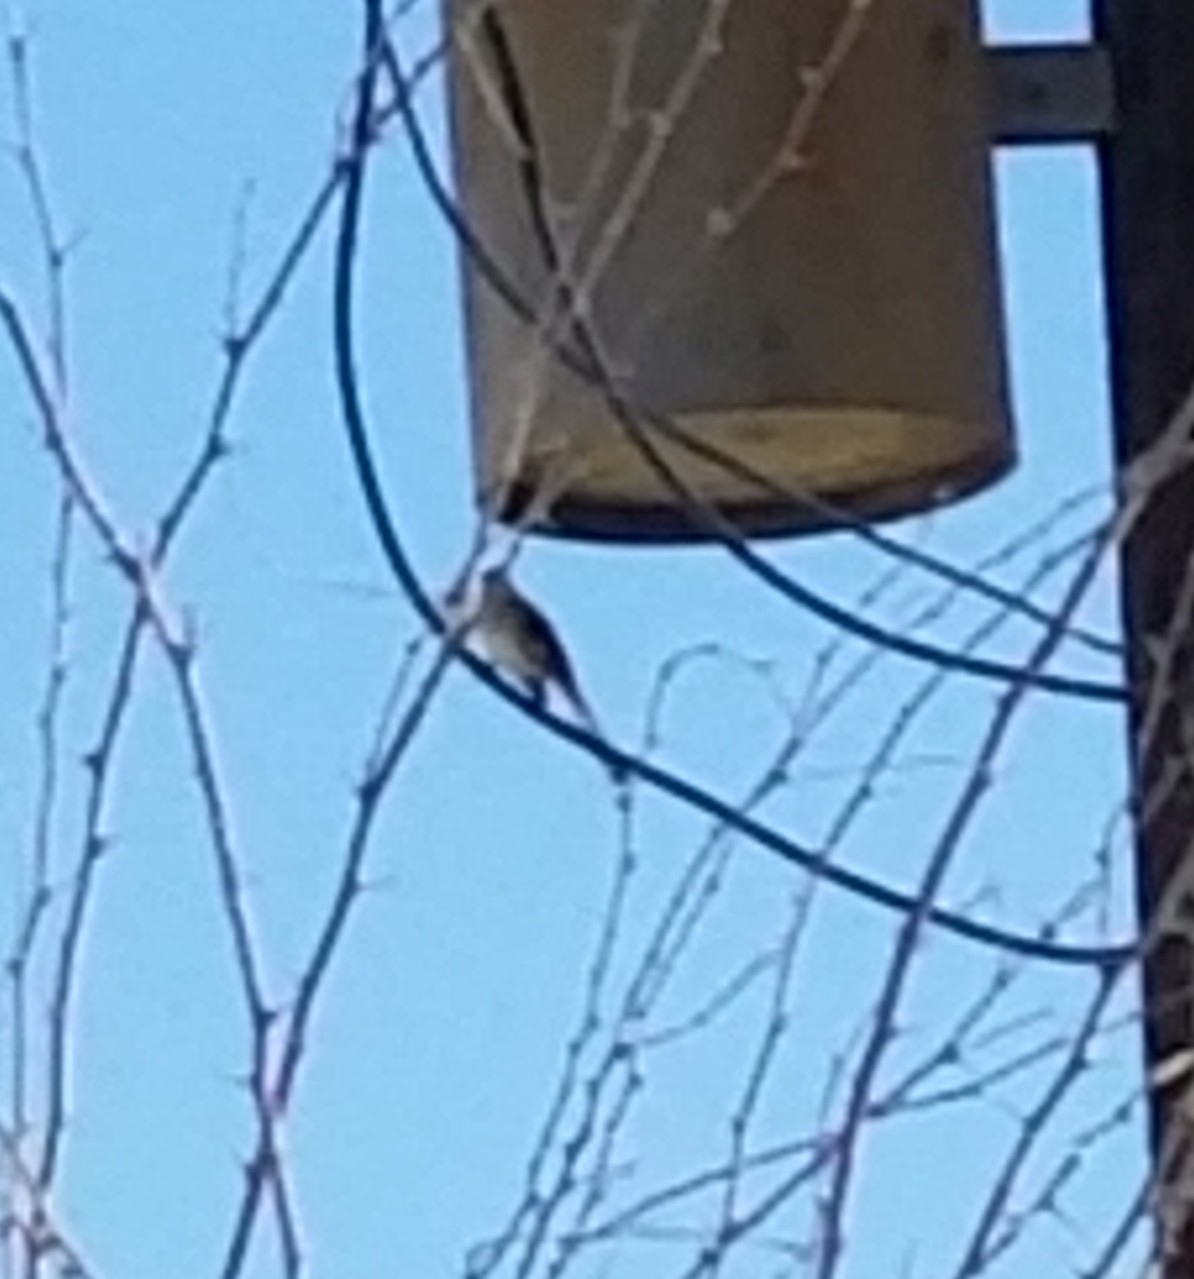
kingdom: Animalia
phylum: Chordata
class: Aves
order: Passeriformes
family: Mimidae
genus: Mimus
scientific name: Mimus polyglottos
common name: Northern mockingbird
